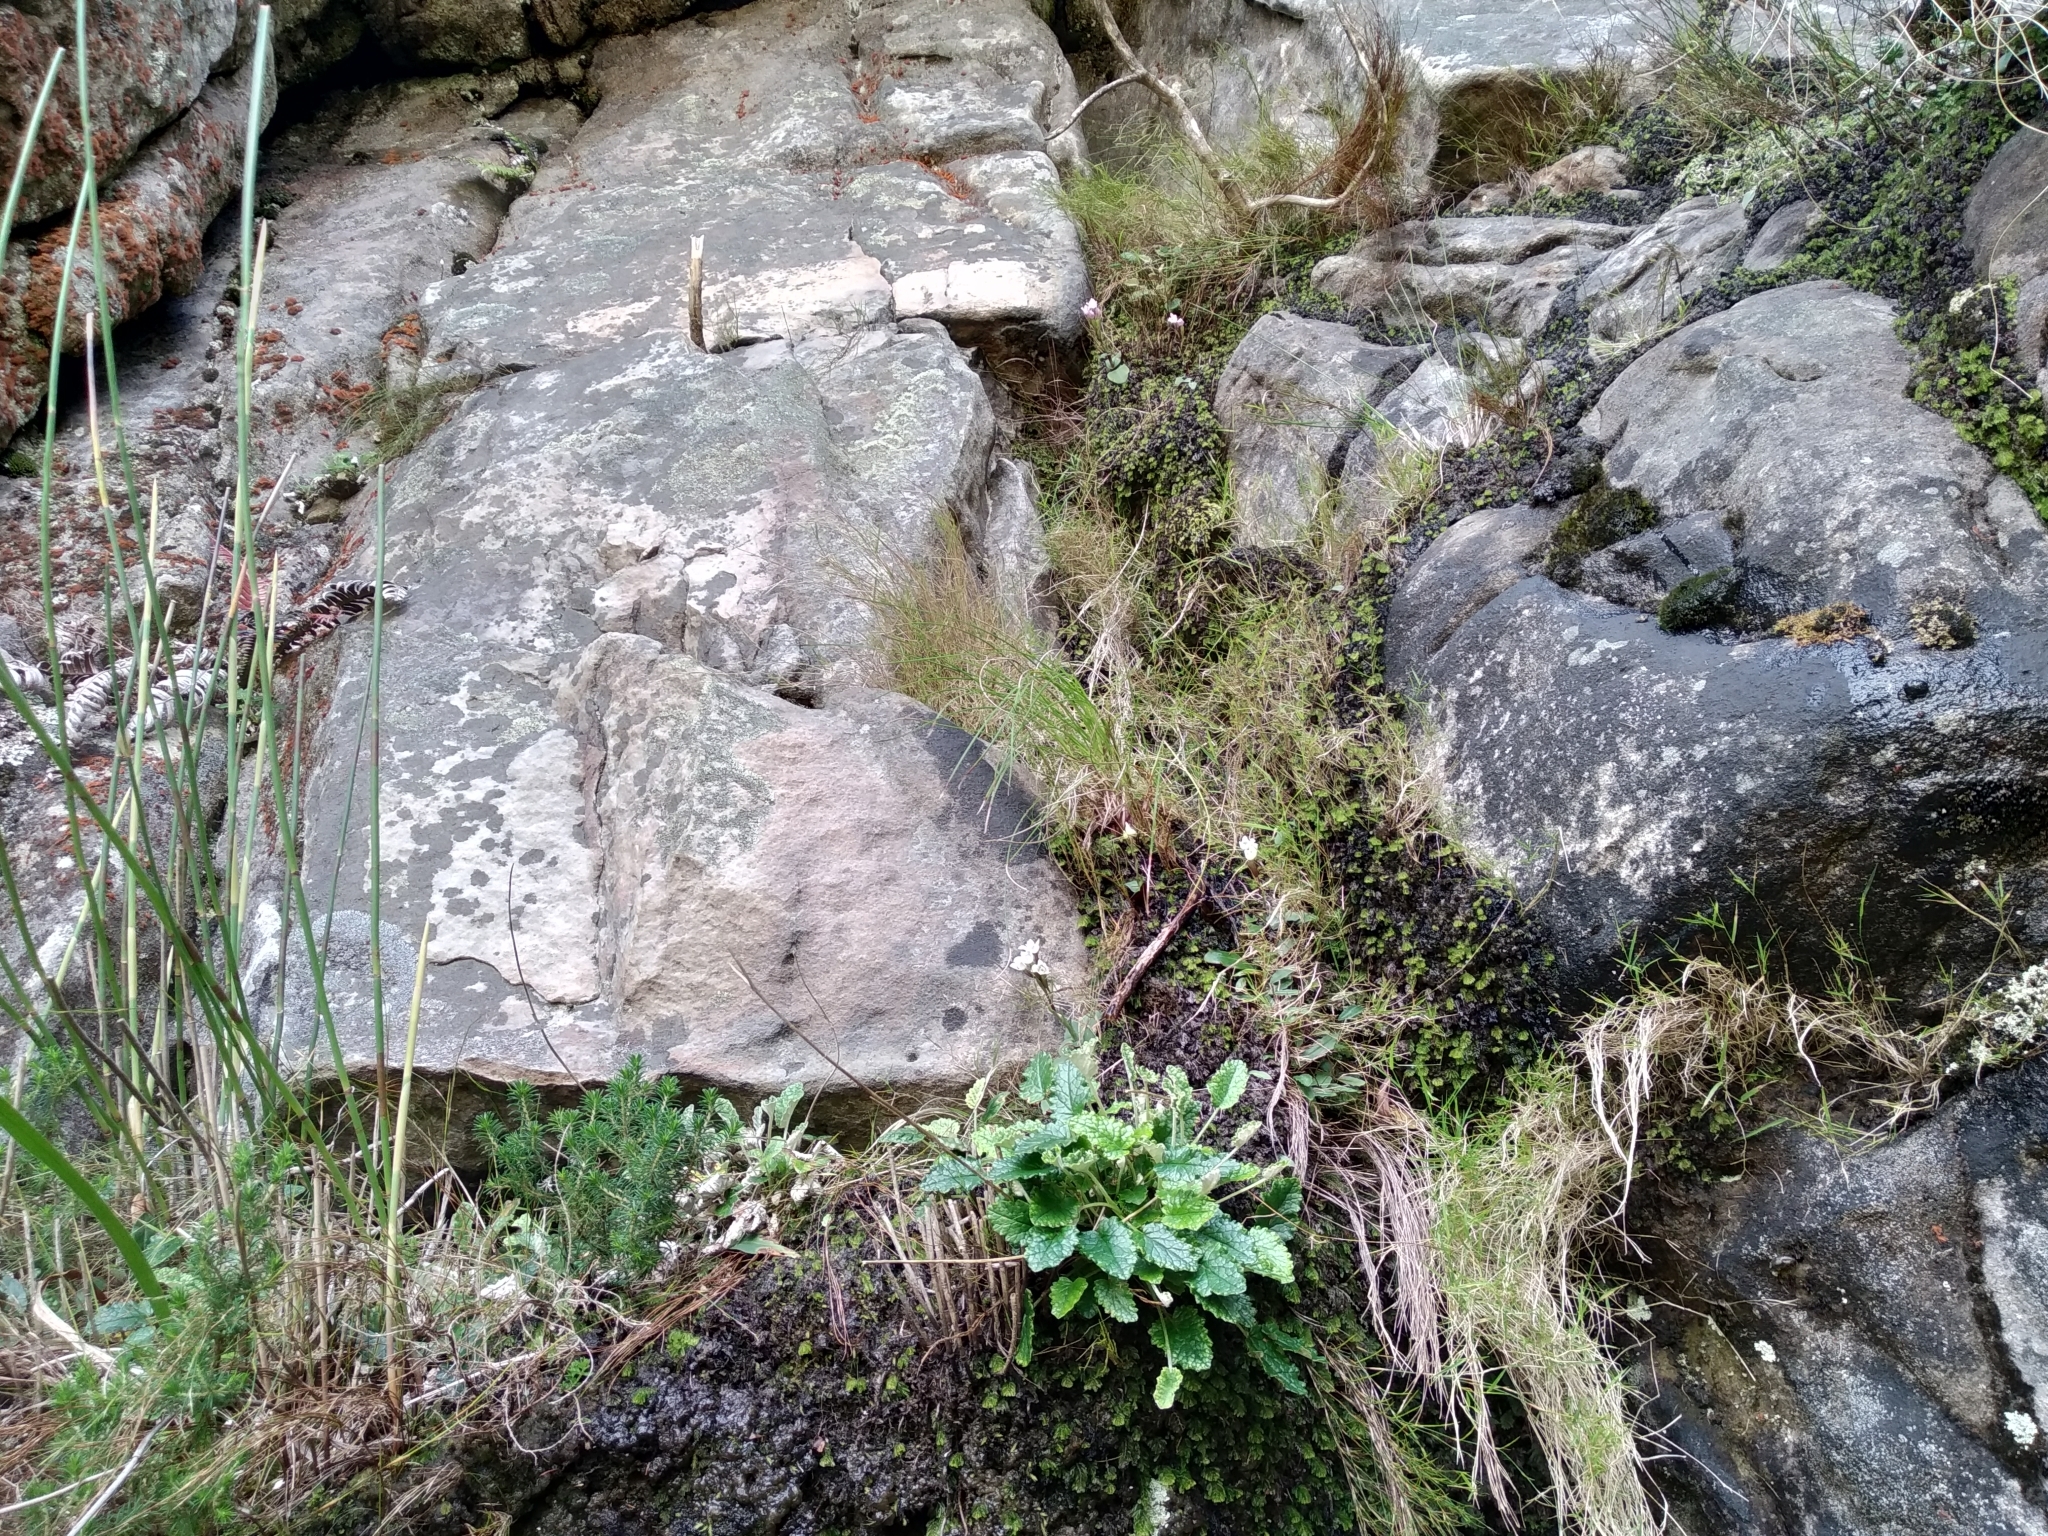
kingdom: Plantae
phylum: Tracheophyta
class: Liliopsida
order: Asparagales
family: Orchidaceae
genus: Disa
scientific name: Disa rosea
